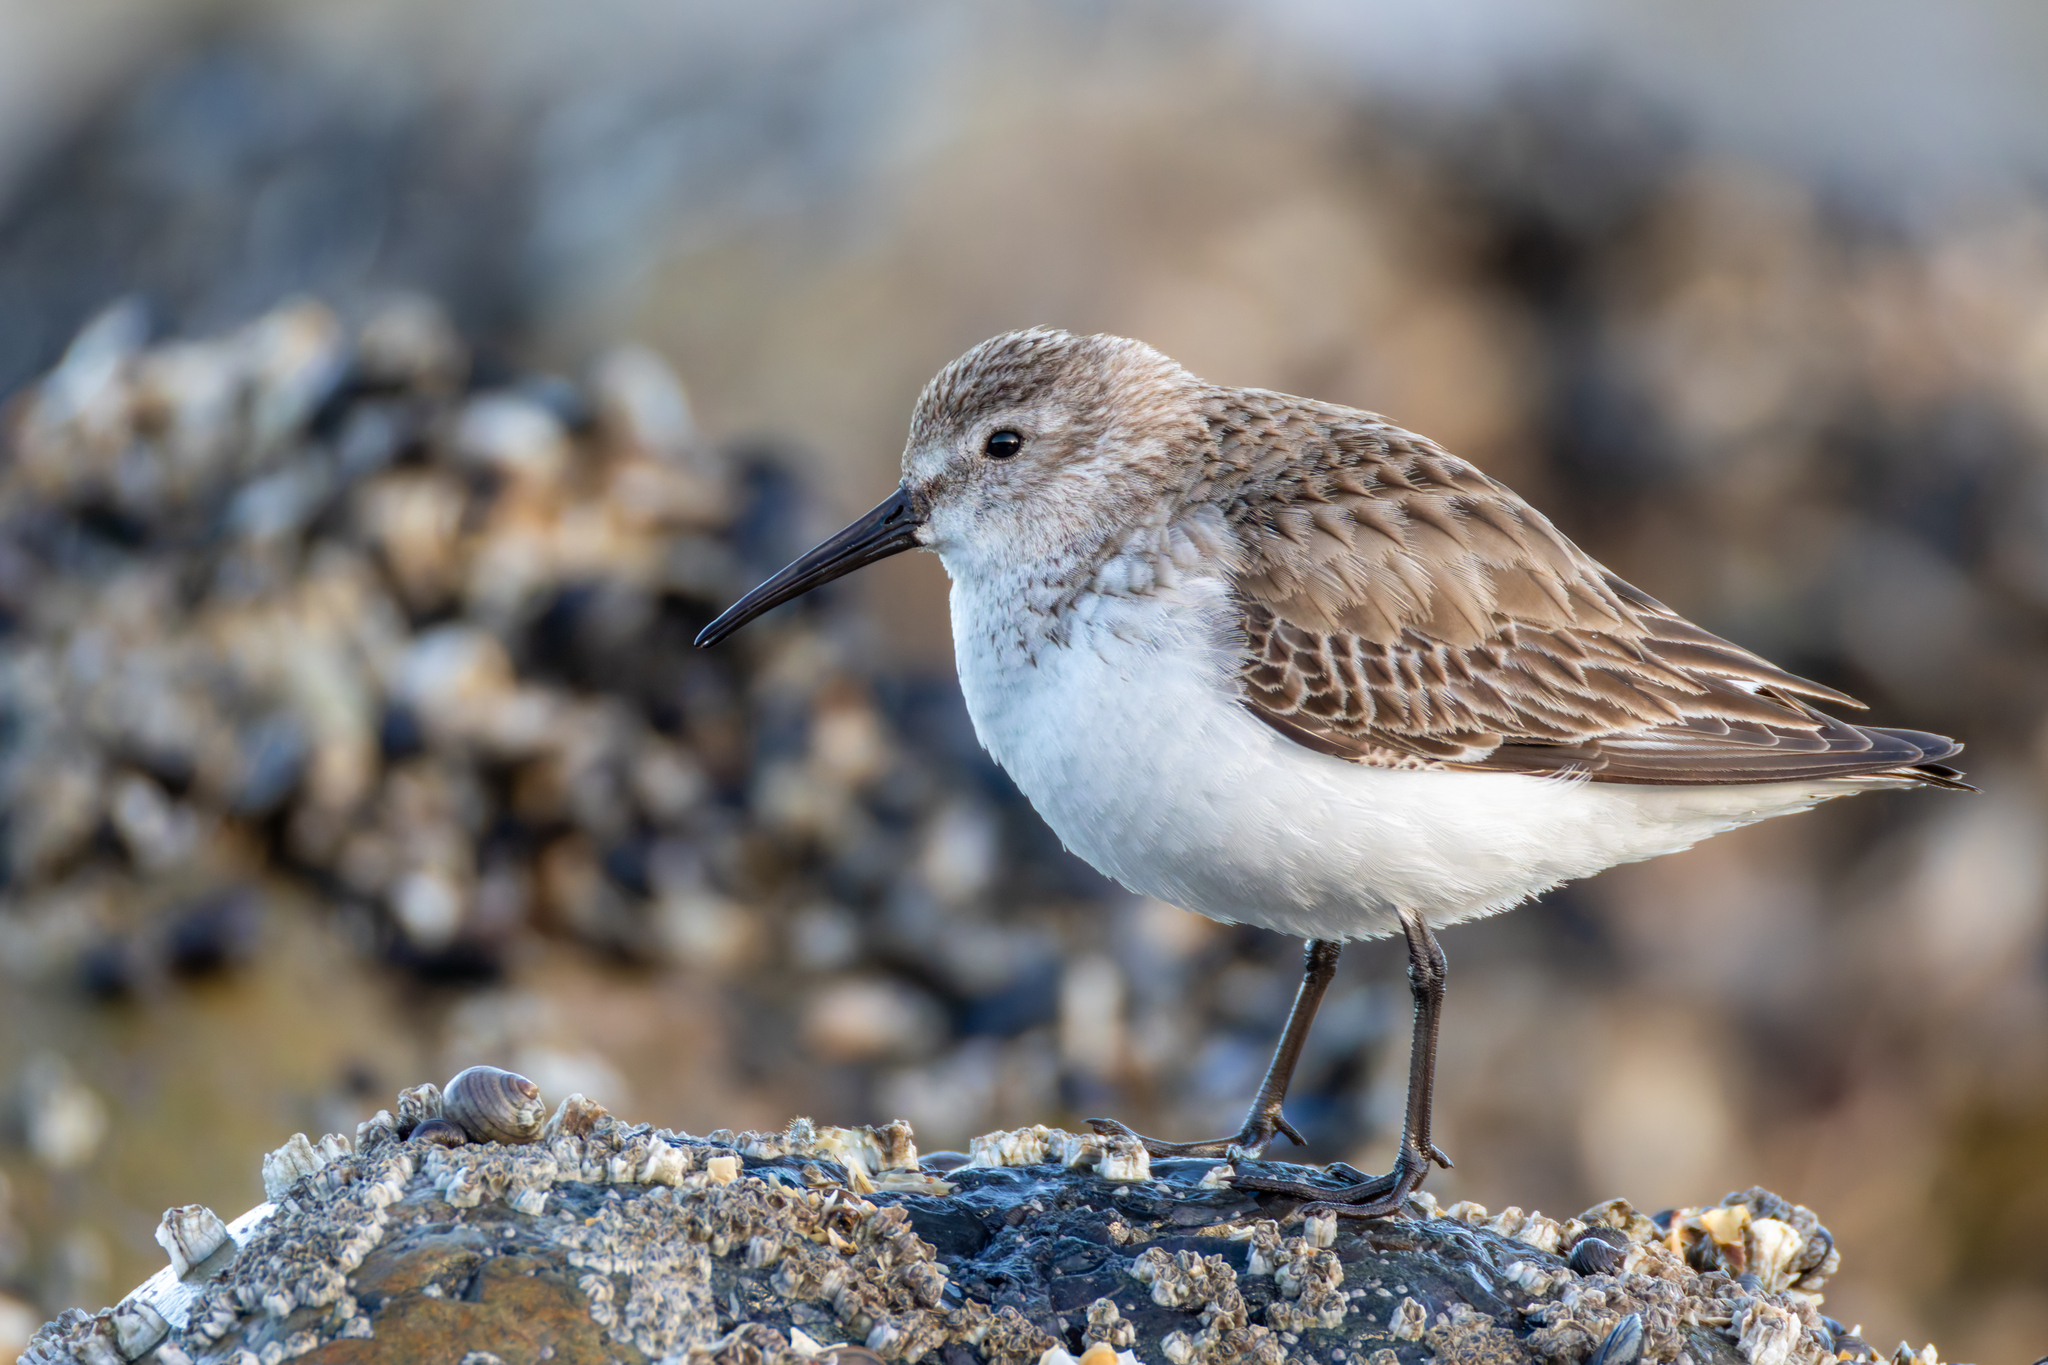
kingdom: Animalia
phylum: Chordata
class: Aves
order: Charadriiformes
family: Scolopacidae
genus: Calidris
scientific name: Calidris alpina
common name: Dunlin
